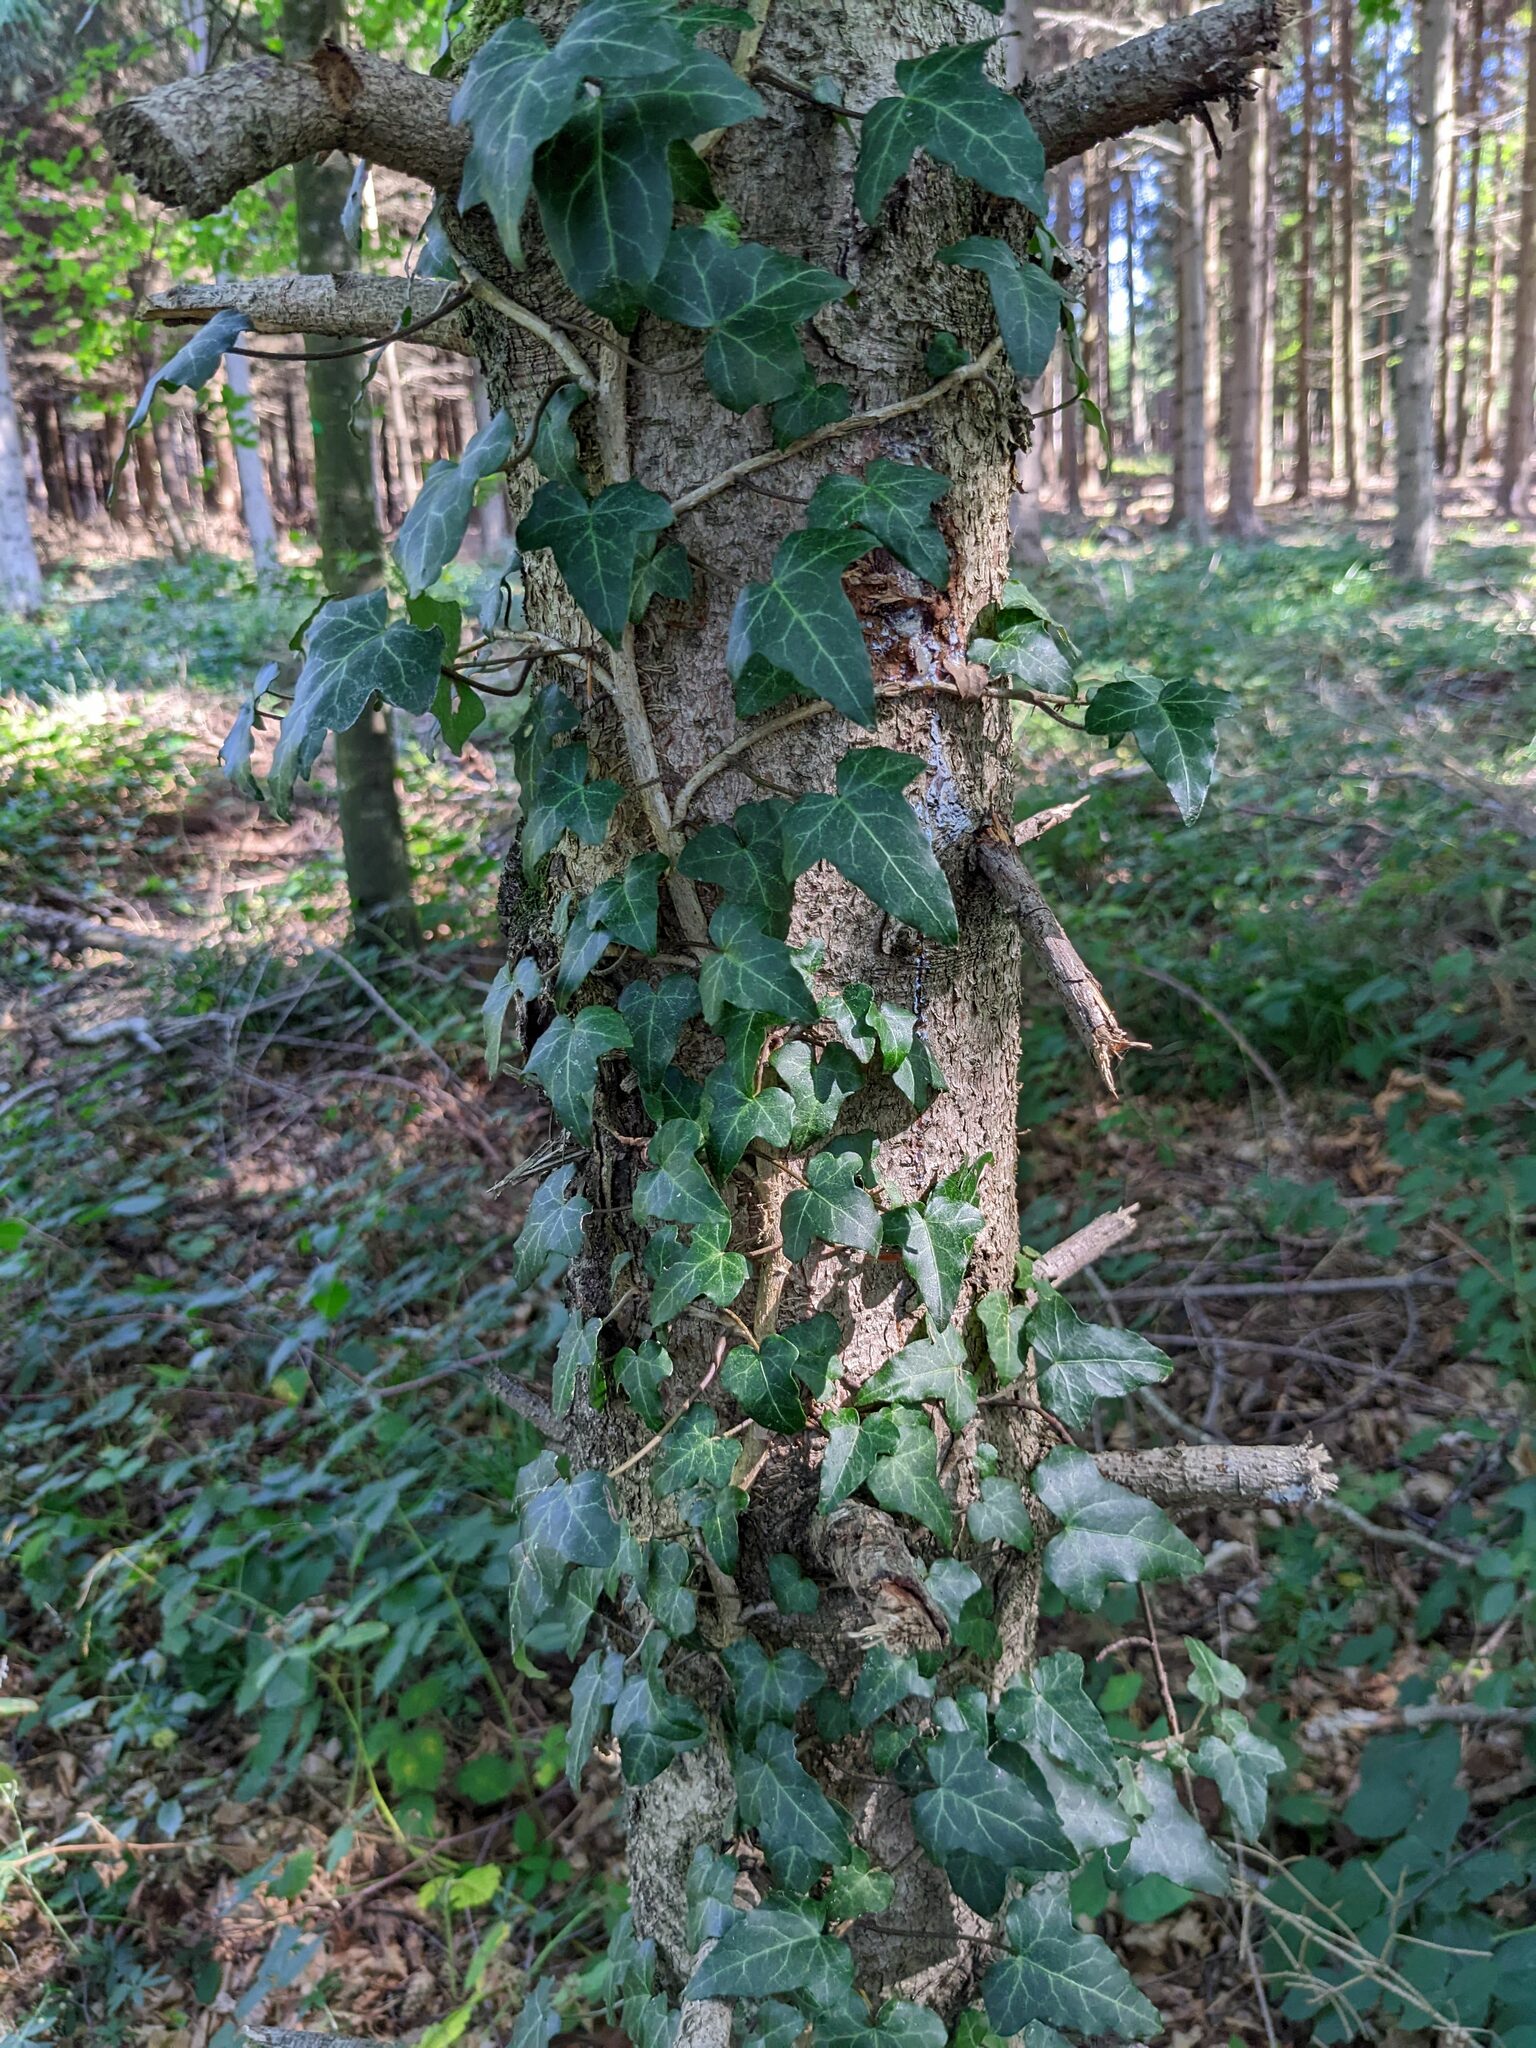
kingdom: Plantae
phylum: Tracheophyta
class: Magnoliopsida
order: Apiales
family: Araliaceae
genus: Hedera
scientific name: Hedera helix
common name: Ivy
